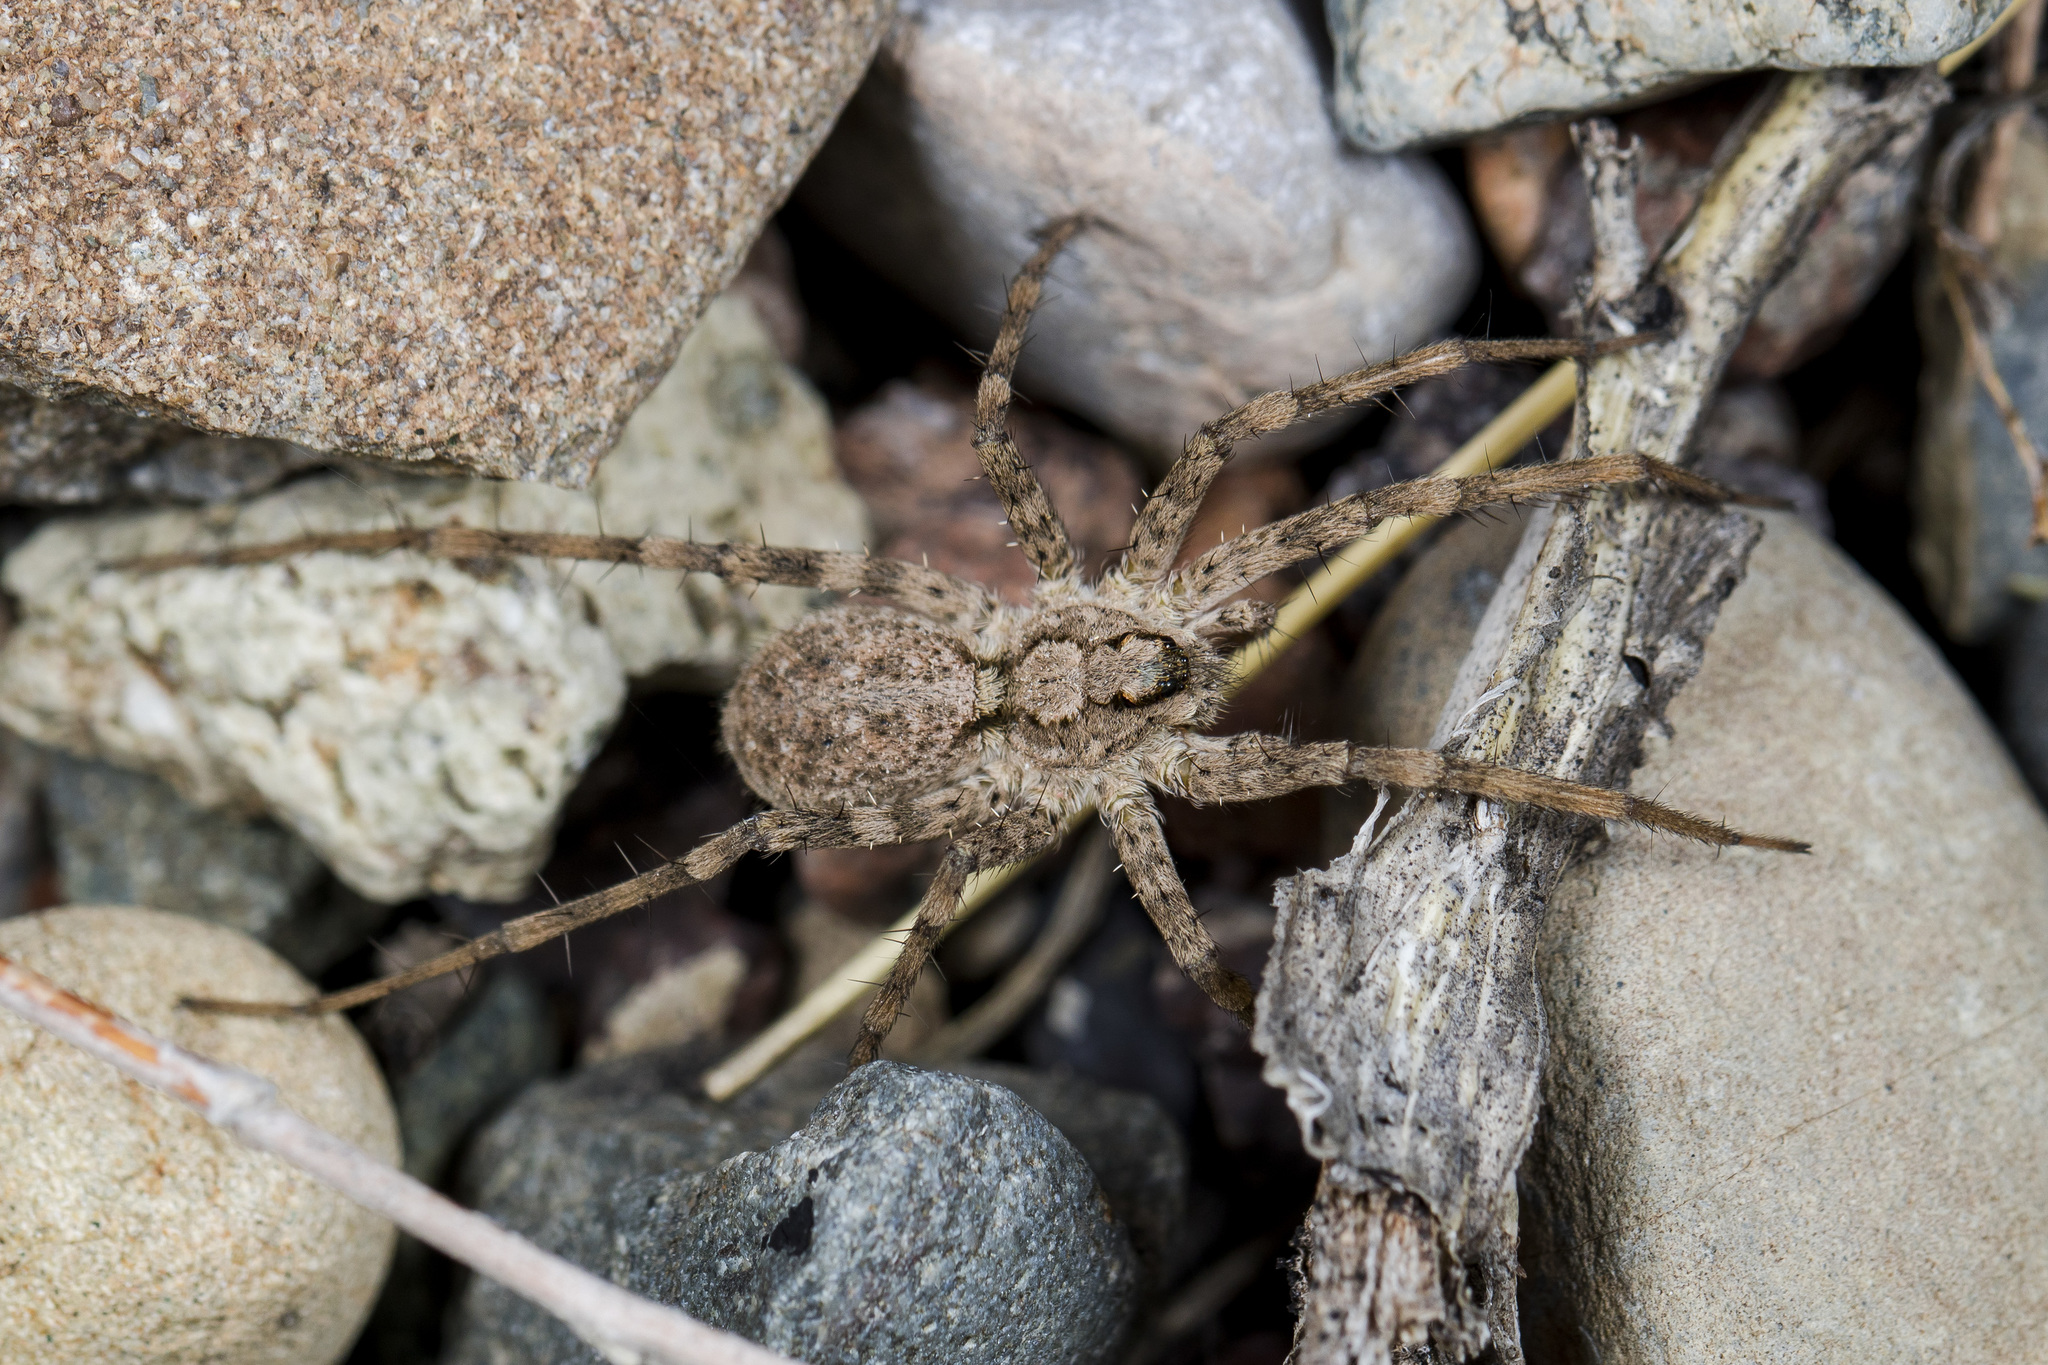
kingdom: Animalia
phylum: Arthropoda
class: Arachnida
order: Araneae
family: Lycosidae
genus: Evippa
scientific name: Evippa sjostedti
